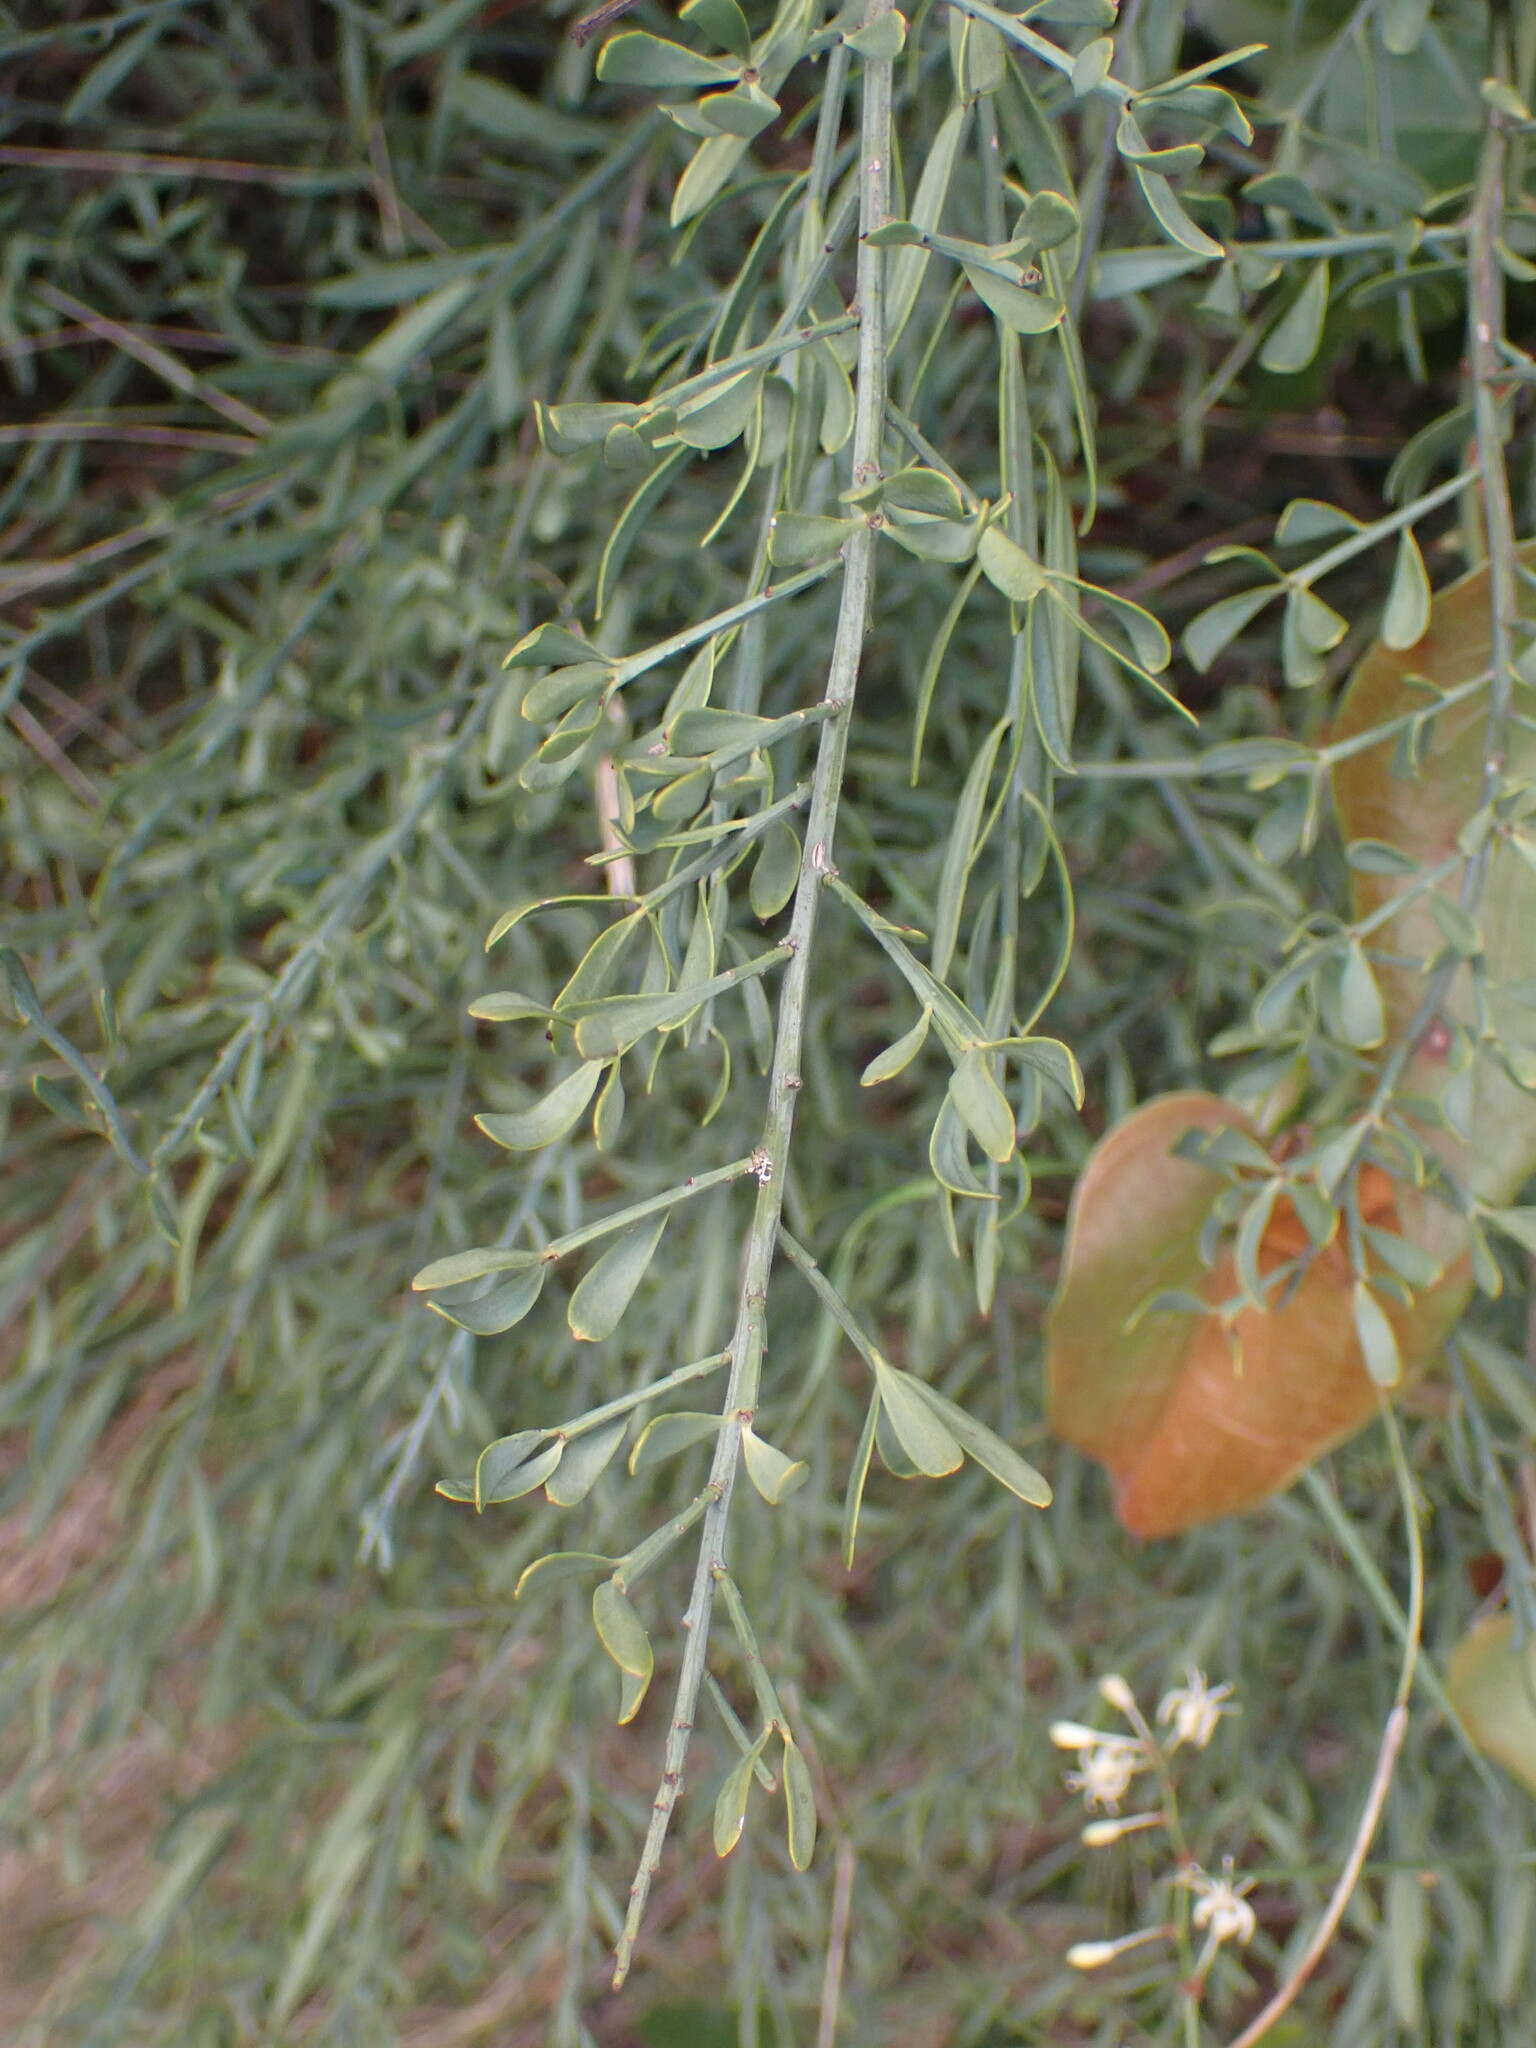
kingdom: Plantae
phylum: Tracheophyta
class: Magnoliopsida
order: Santalales
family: Santalaceae
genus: Osyris
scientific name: Osyris alba
